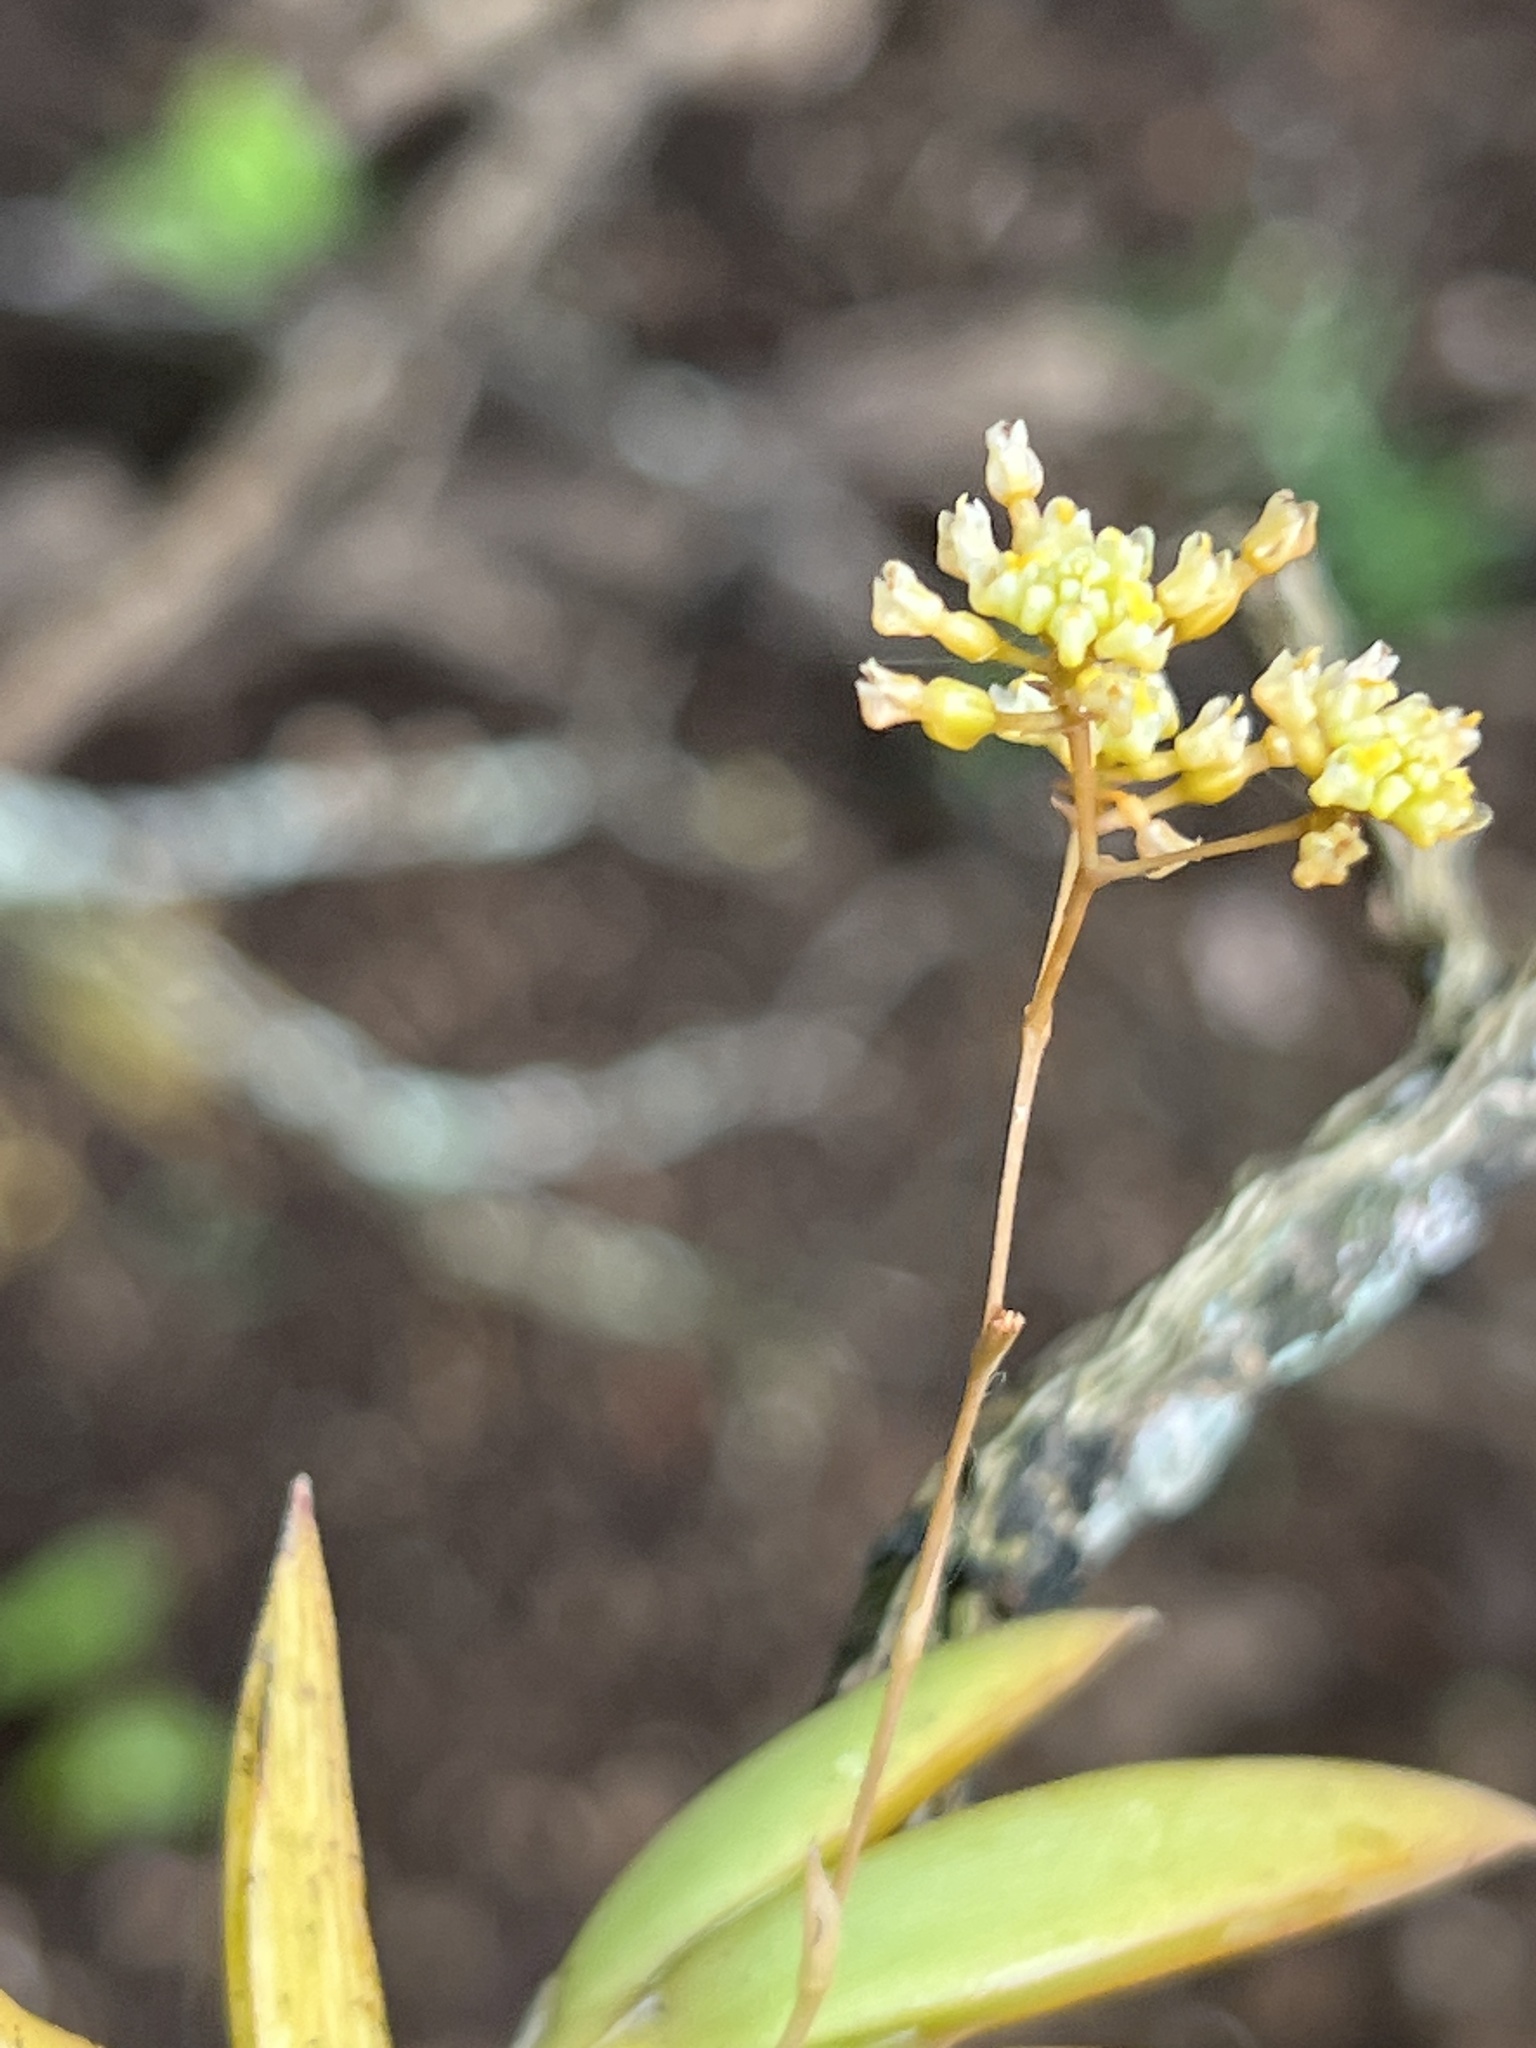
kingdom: Plantae
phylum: Tracheophyta
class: Liliopsida
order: Asparagales
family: Orchidaceae
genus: Trizeuxis
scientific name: Trizeuxis falcata
